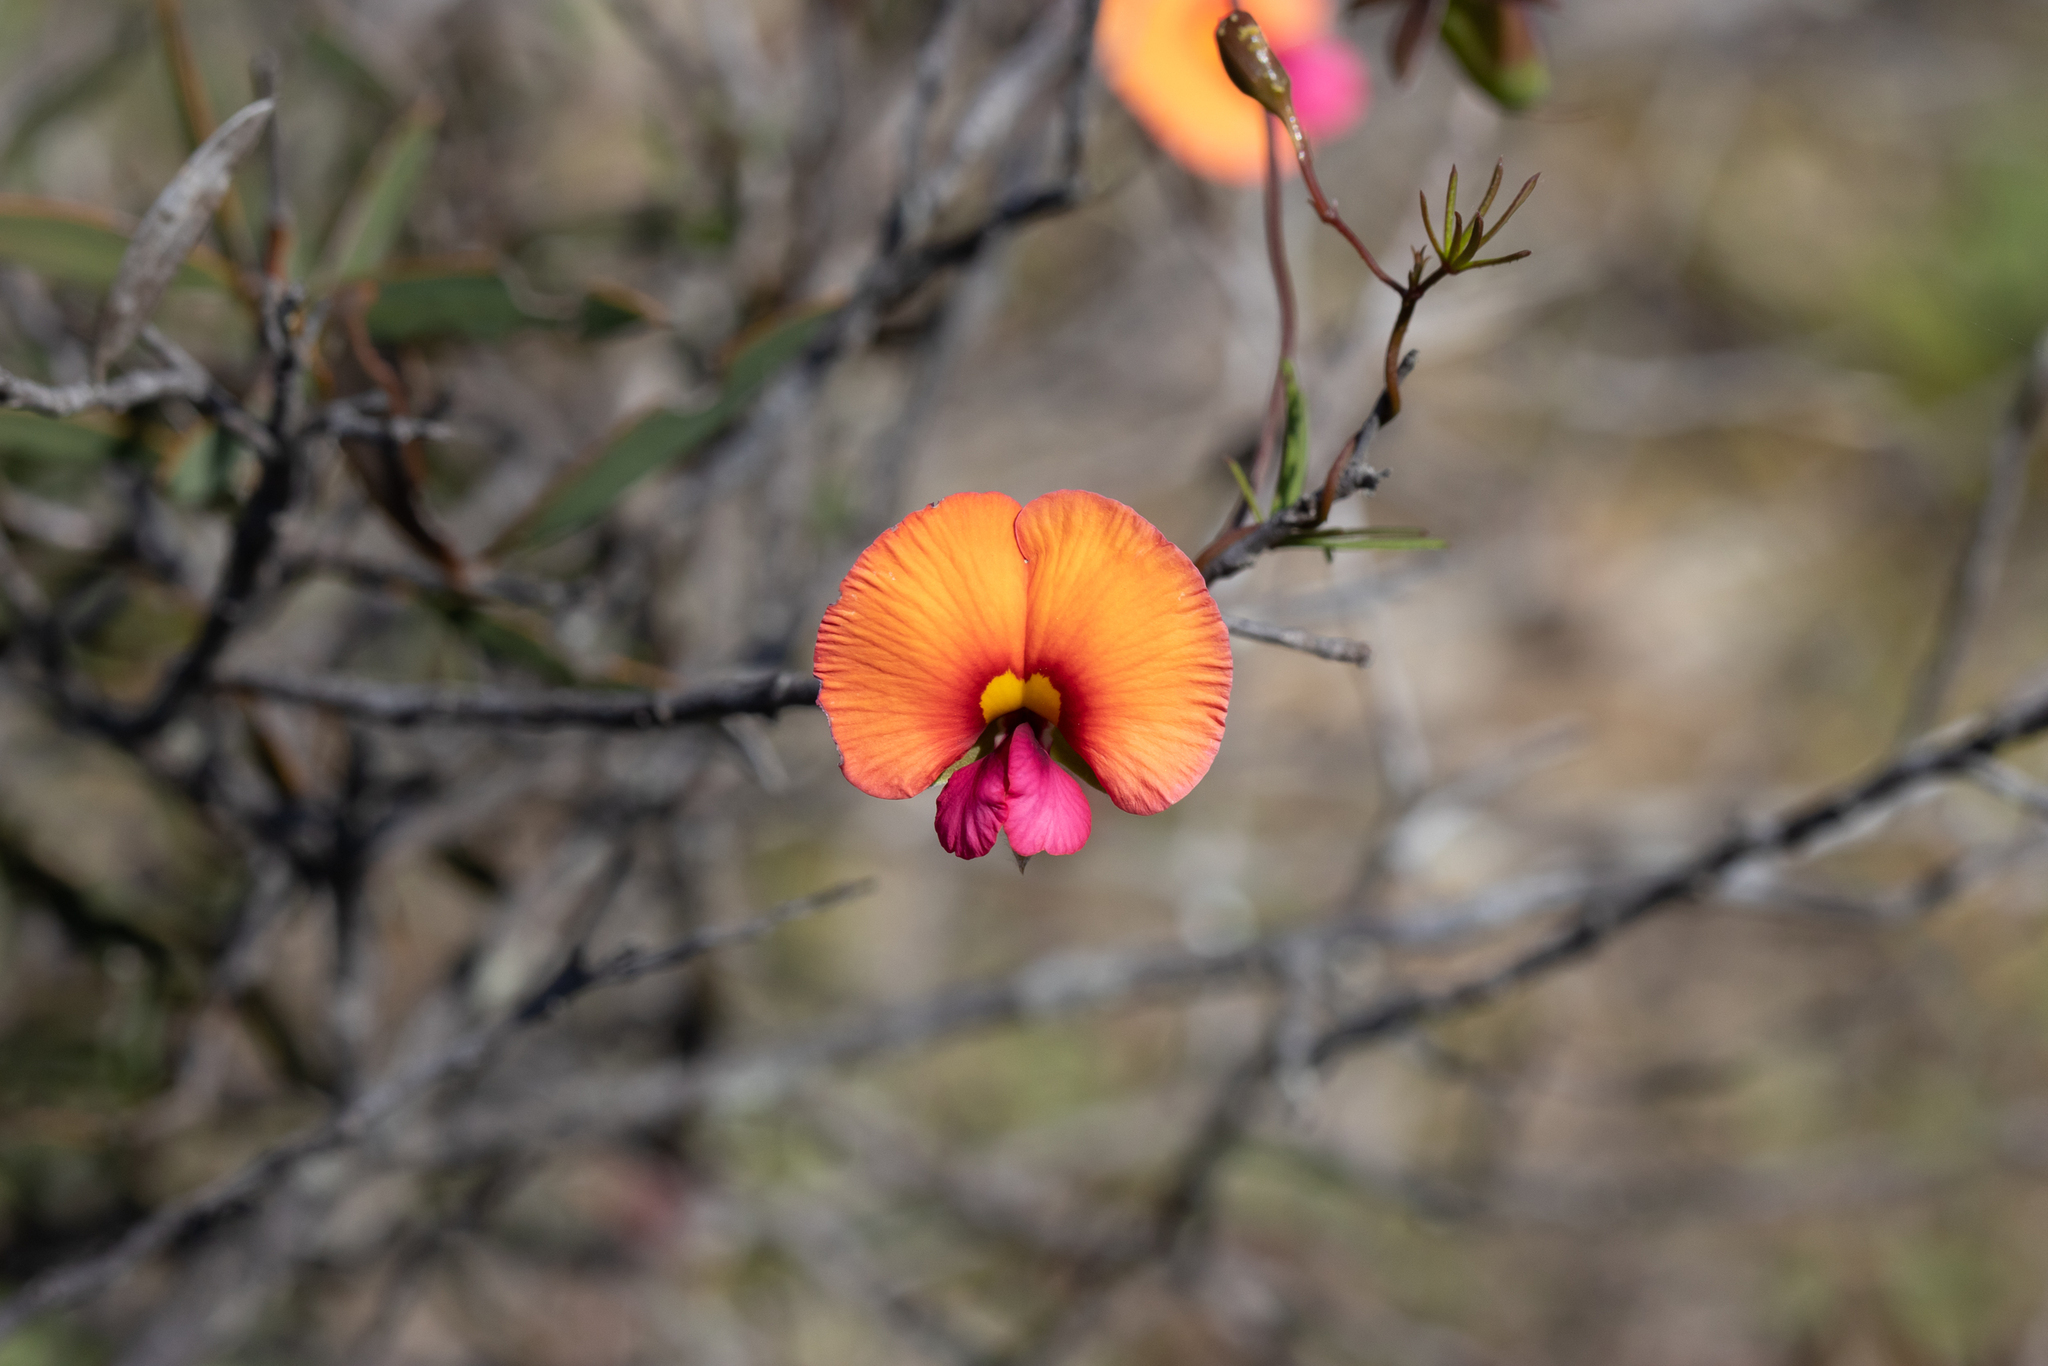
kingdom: Plantae
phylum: Tracheophyta
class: Magnoliopsida
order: Fabales
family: Fabaceae
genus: Gompholobium
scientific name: Gompholobium polymorphum
